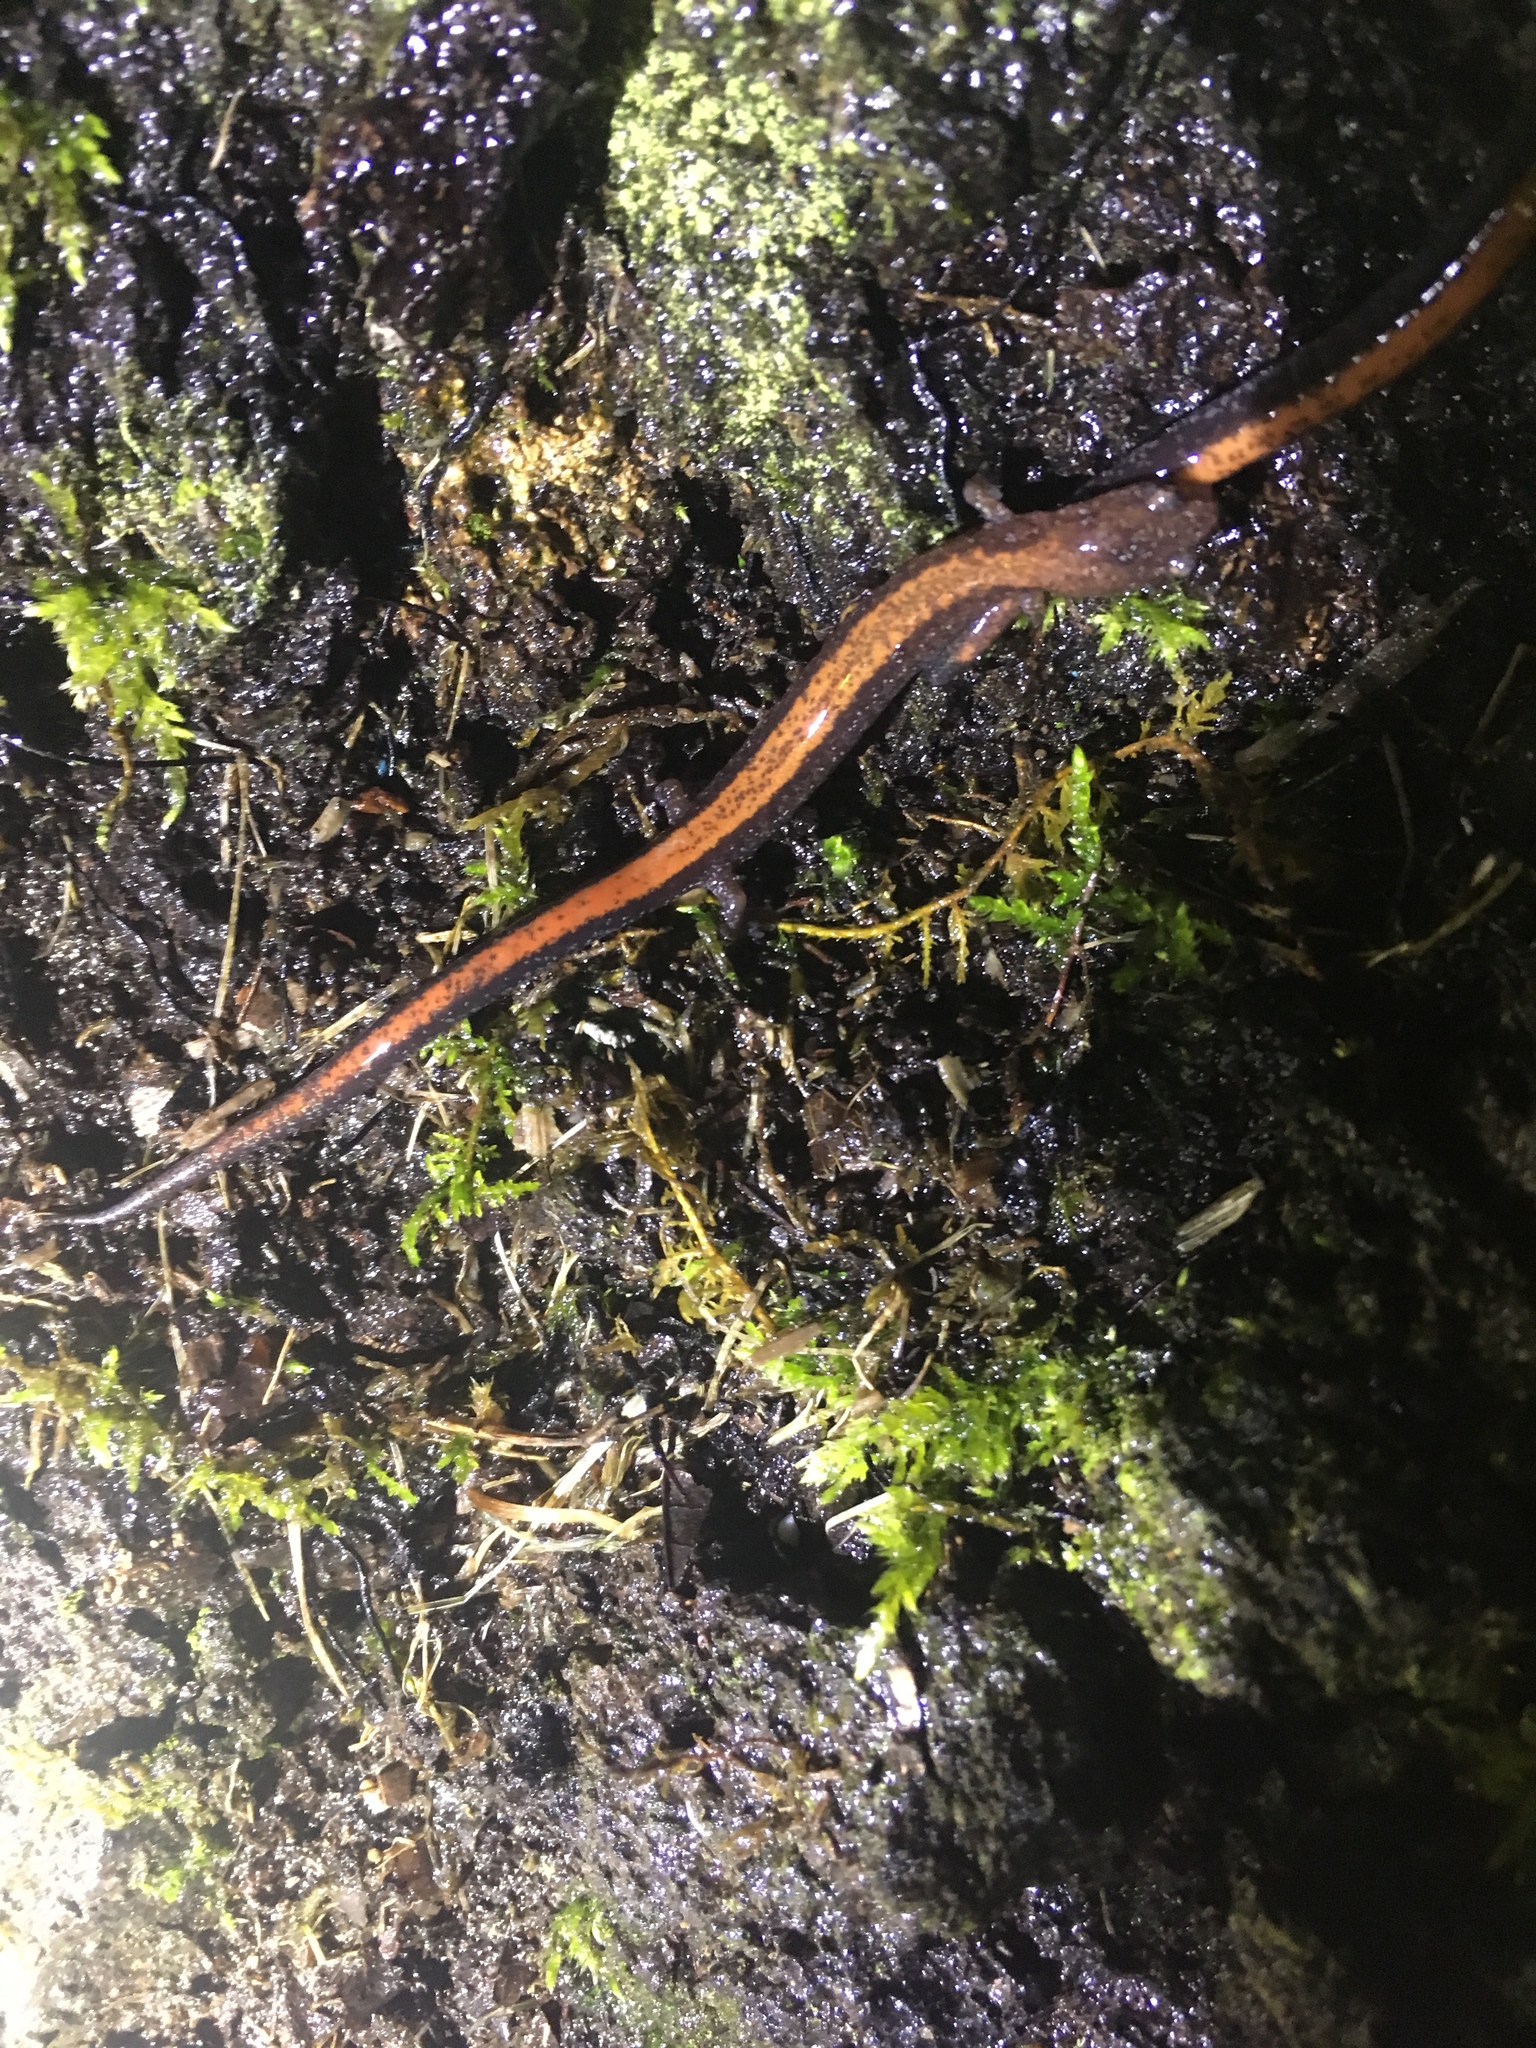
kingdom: Animalia
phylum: Chordata
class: Amphibia
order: Caudata
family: Plethodontidae
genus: Plethodon
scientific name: Plethodon cinereus
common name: Redback salamander
